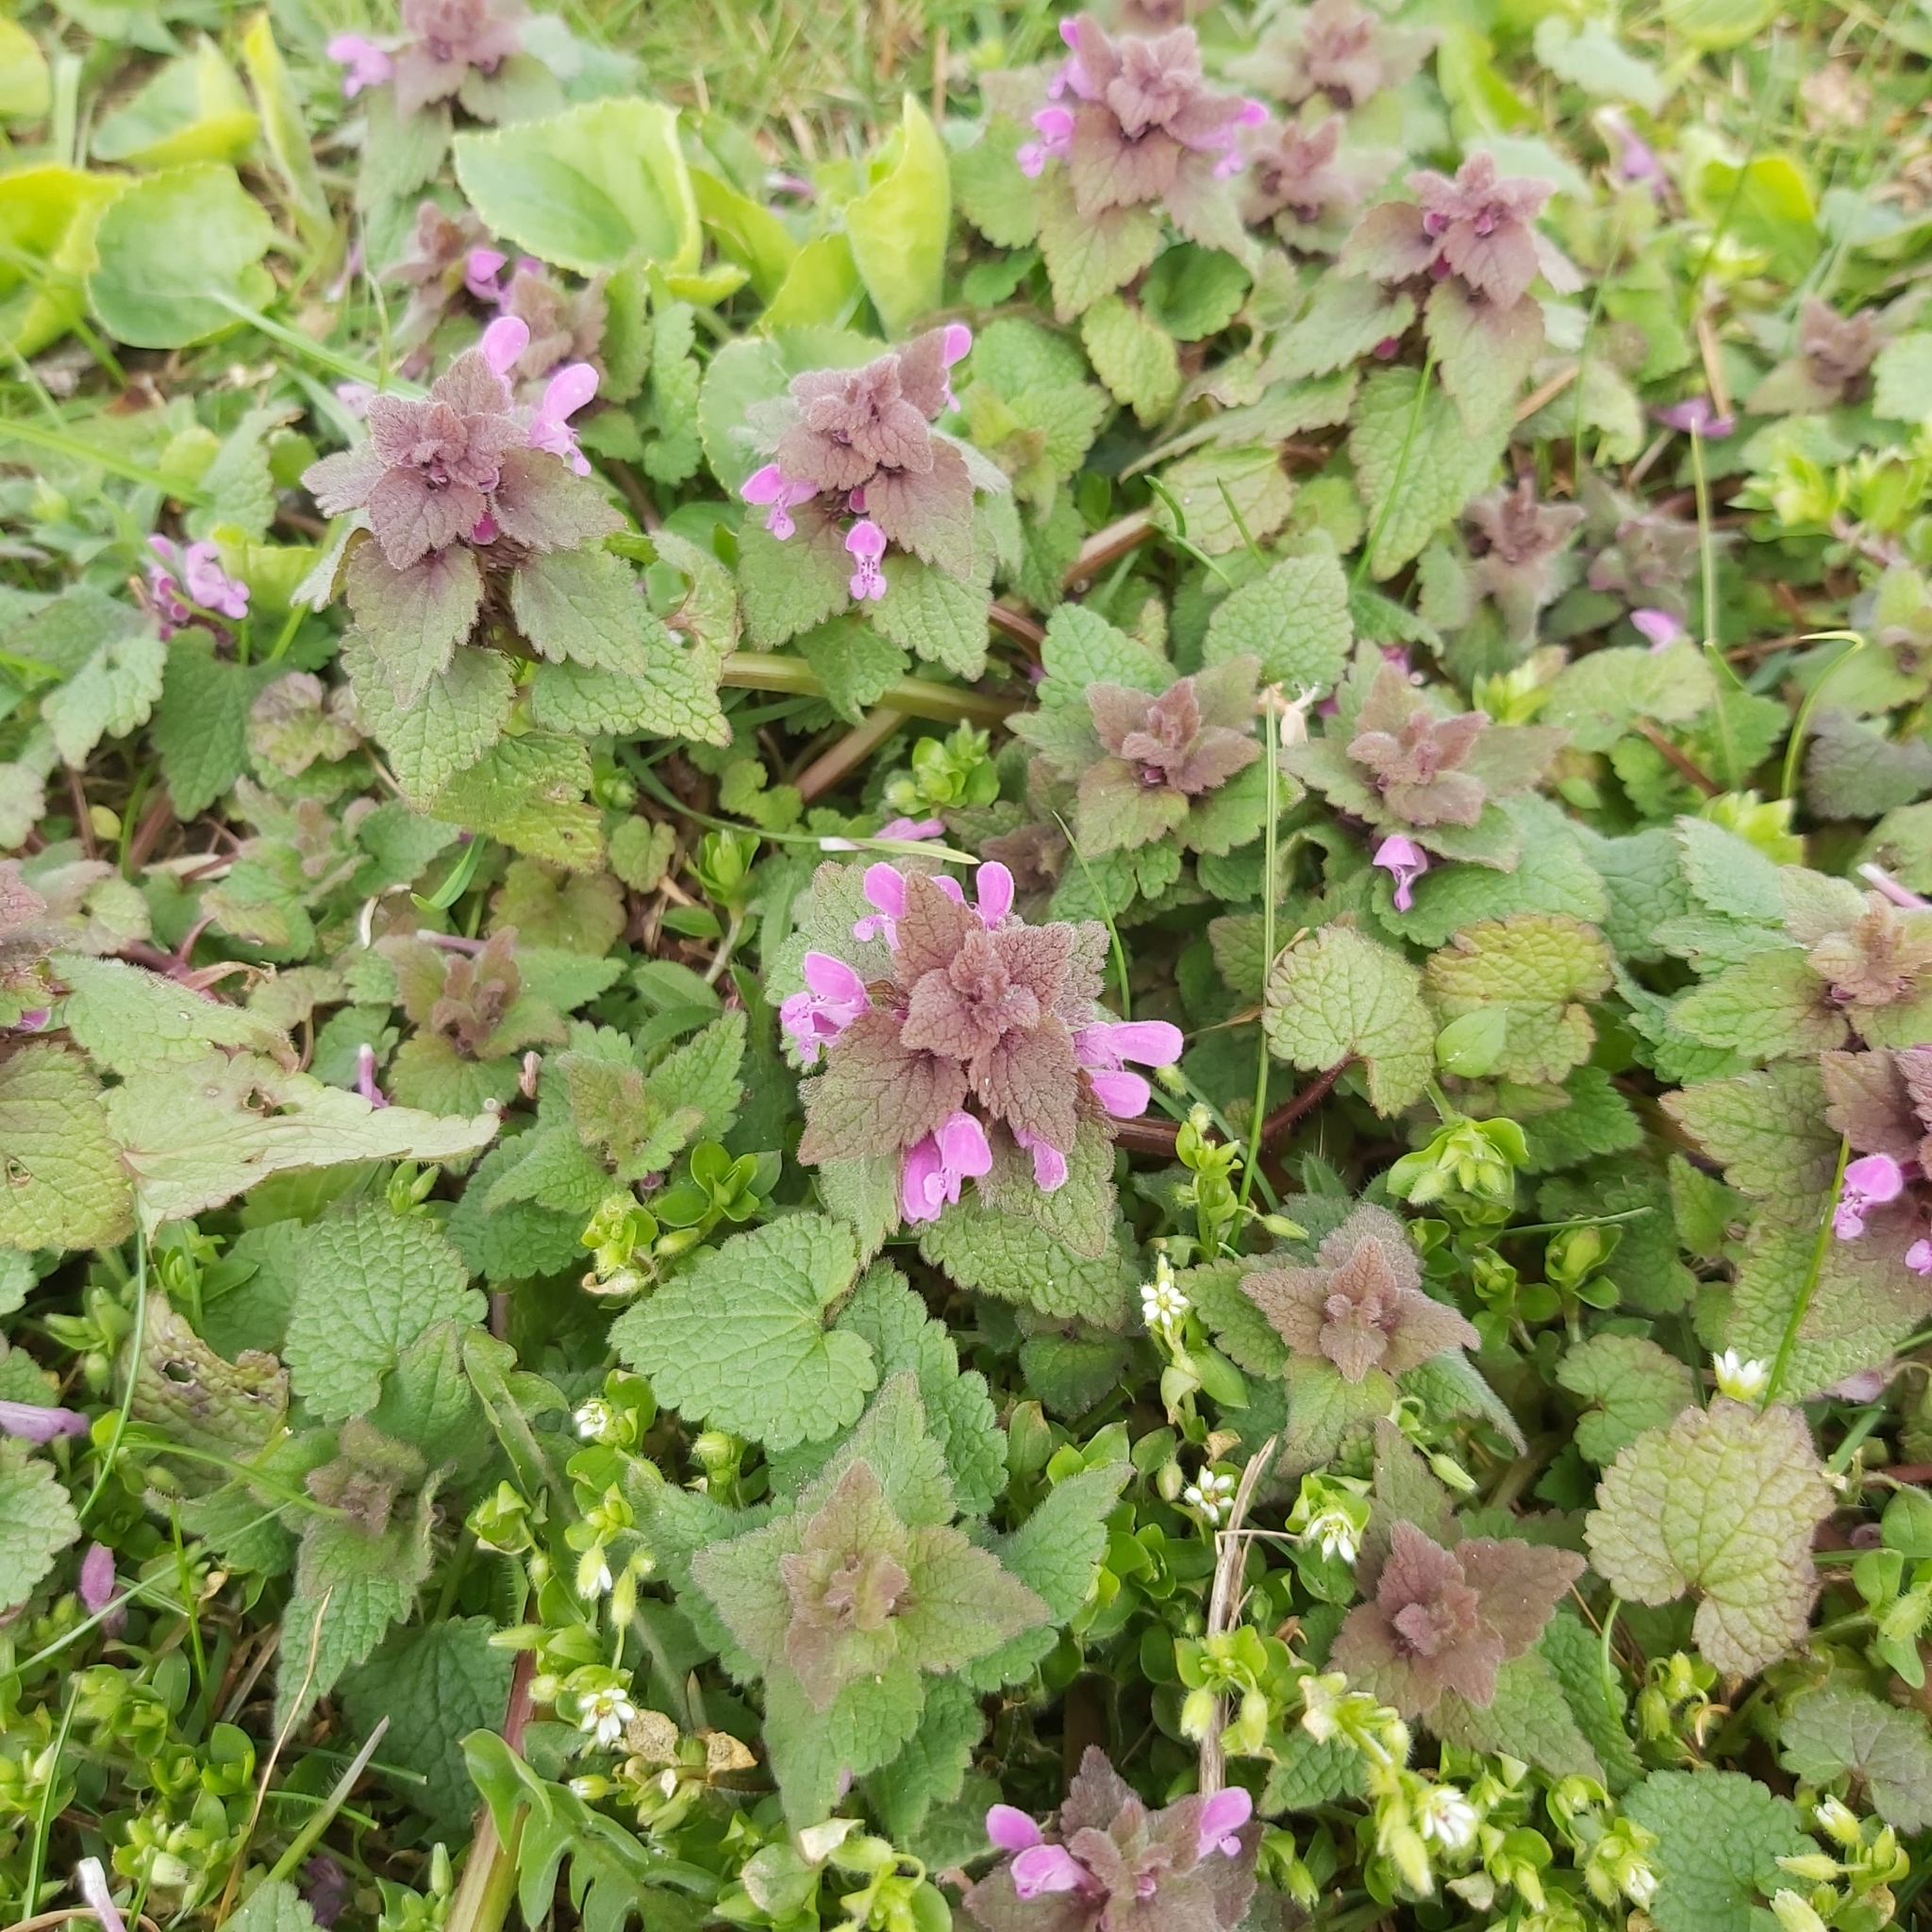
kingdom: Plantae
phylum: Tracheophyta
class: Magnoliopsida
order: Lamiales
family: Lamiaceae
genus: Lamium
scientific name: Lamium purpureum
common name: Red dead-nettle
